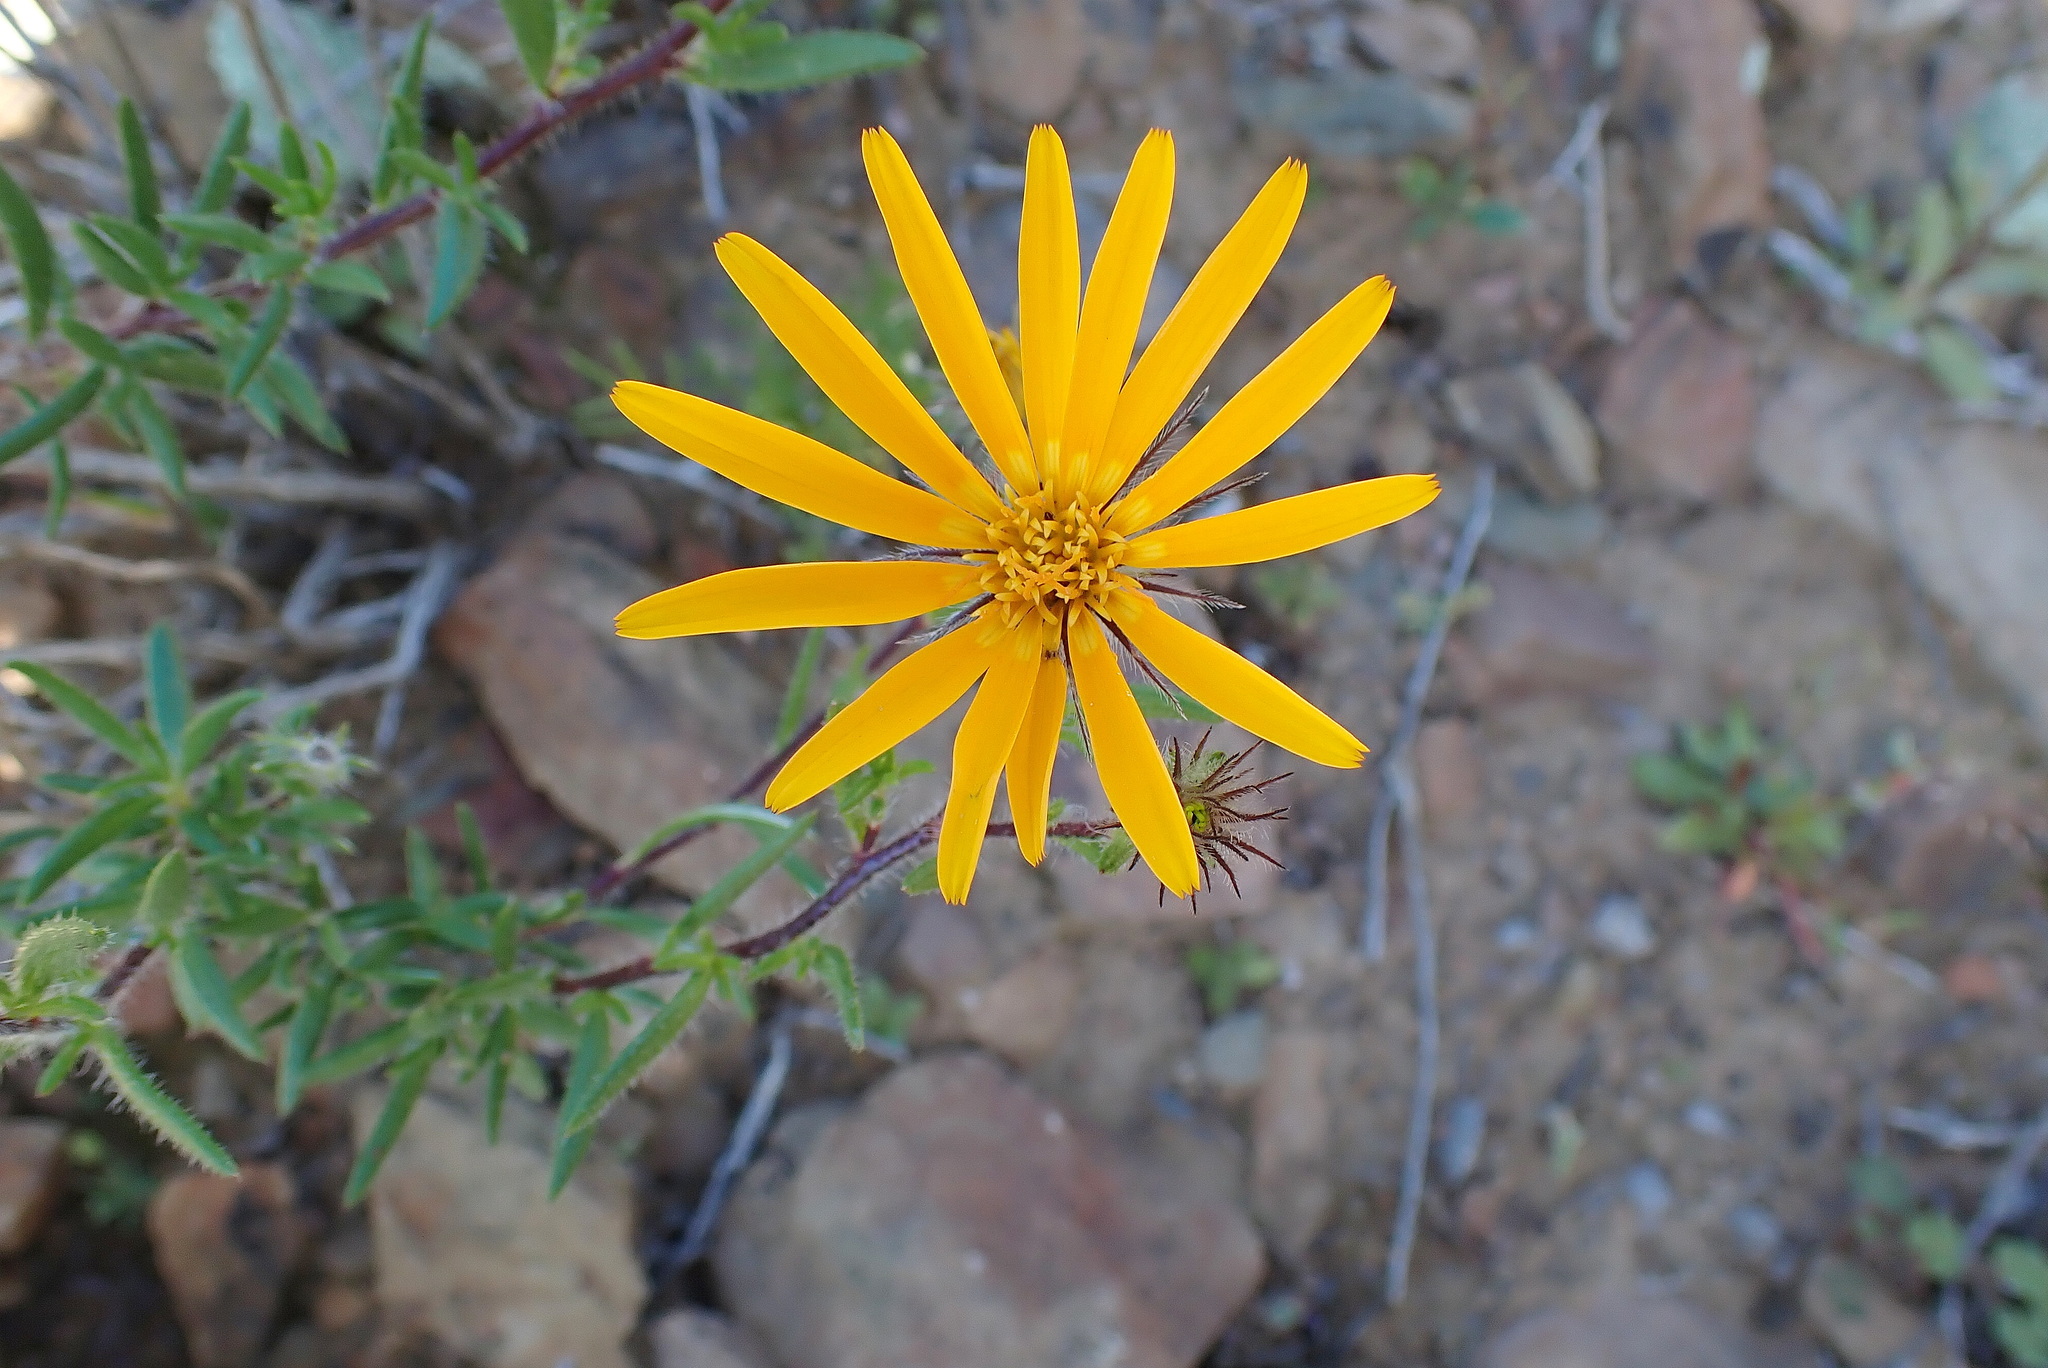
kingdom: Plantae
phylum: Tracheophyta
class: Magnoliopsida
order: Asterales
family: Asteraceae
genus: Hirpicium
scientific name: Hirpicium integrifolium
